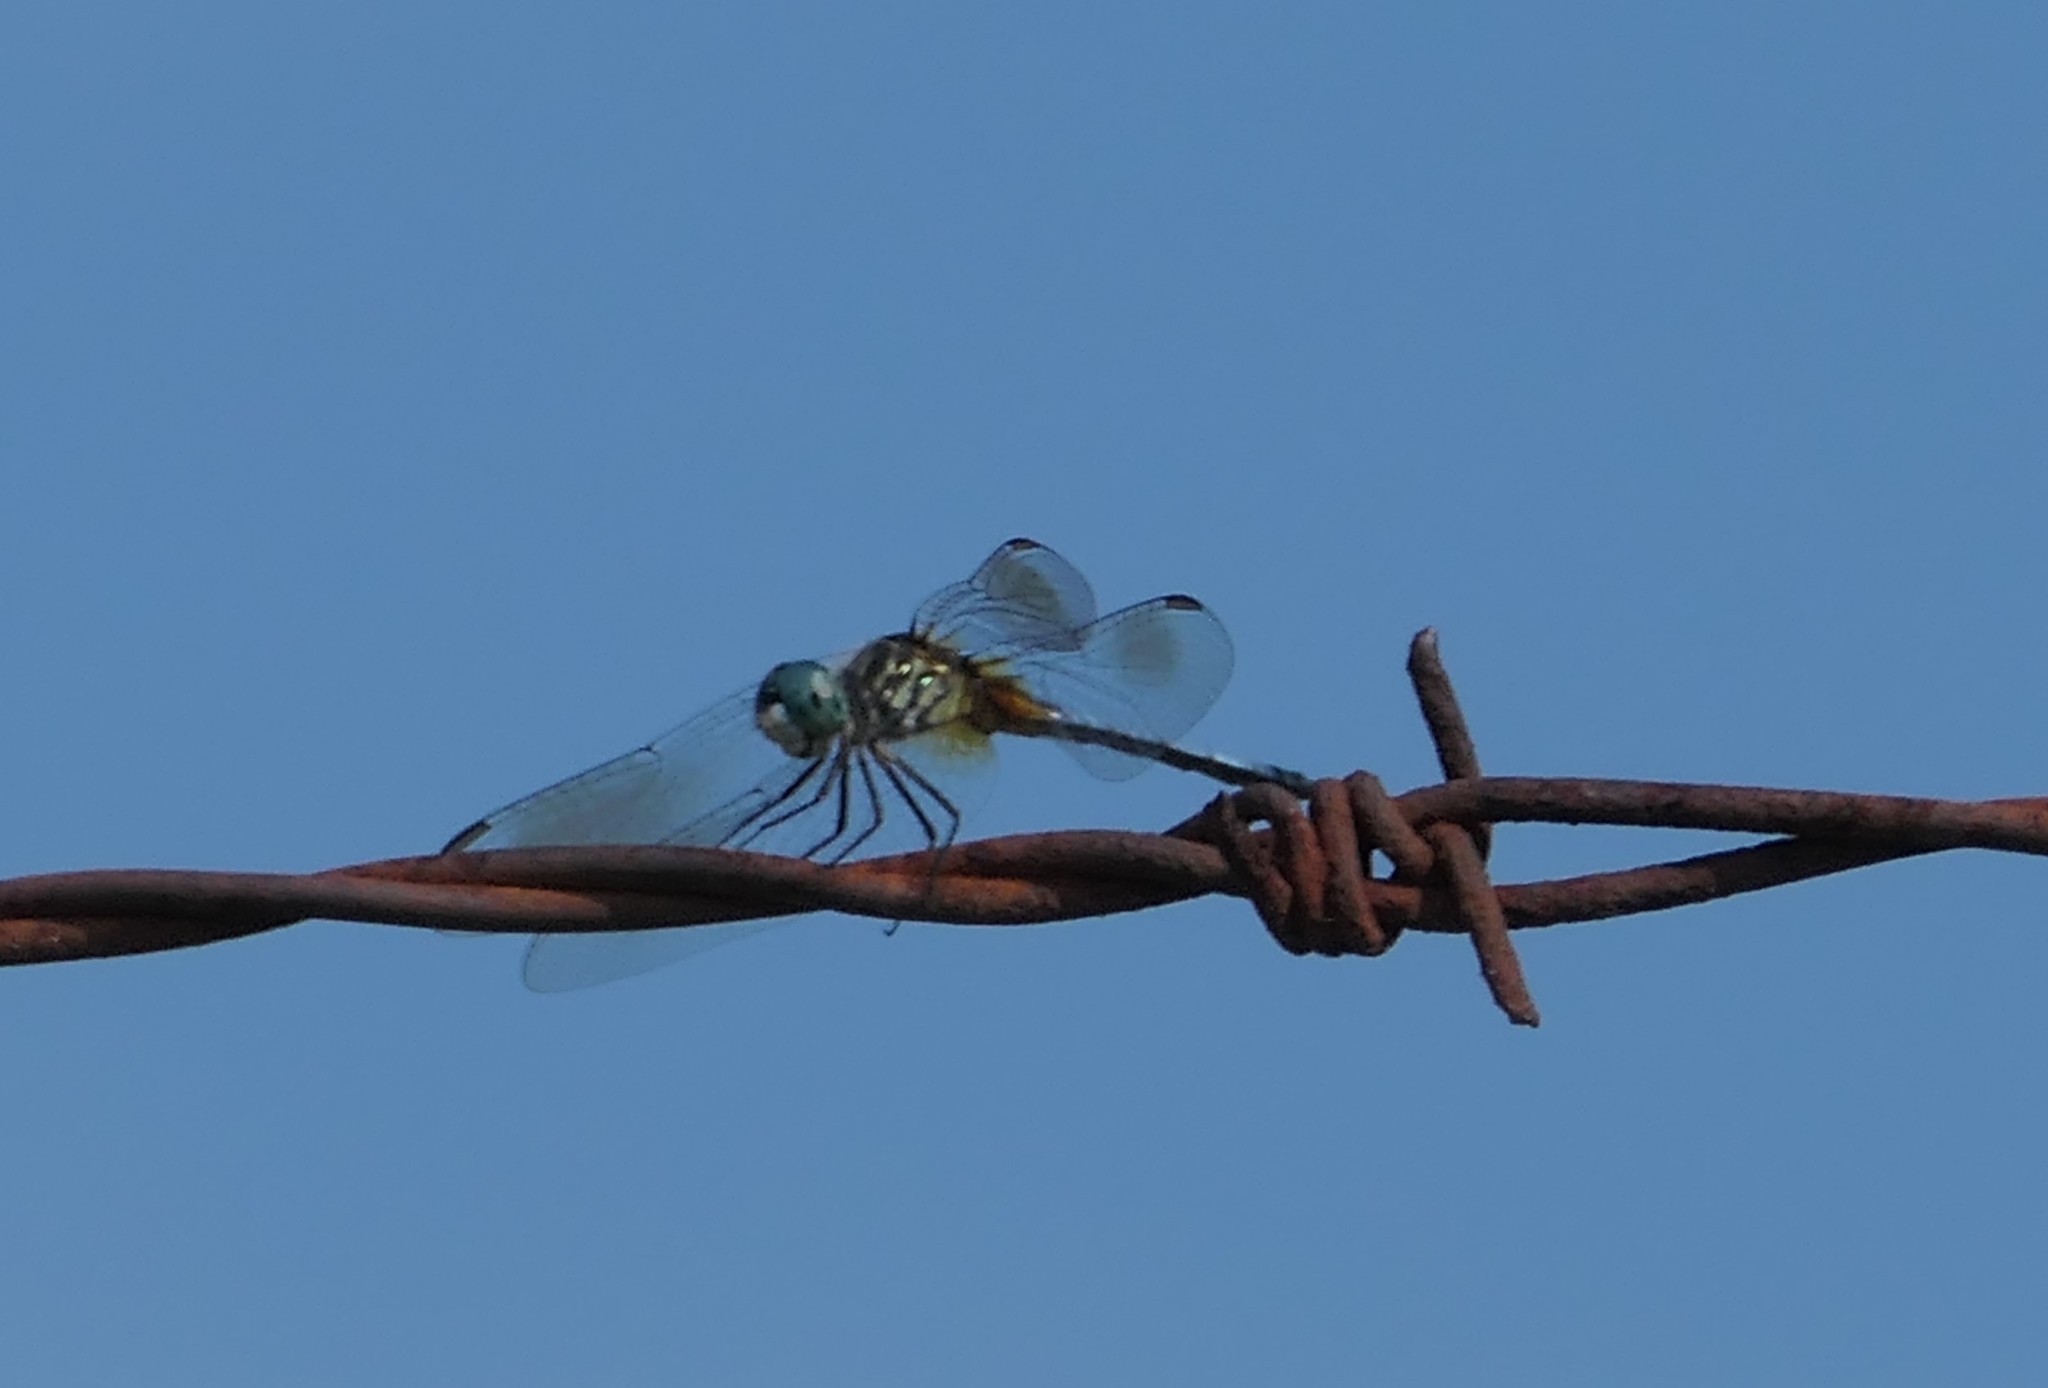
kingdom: Animalia
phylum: Arthropoda
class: Insecta
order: Odonata
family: Libellulidae
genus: Pachydiplax
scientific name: Pachydiplax longipennis
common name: Blue dasher
